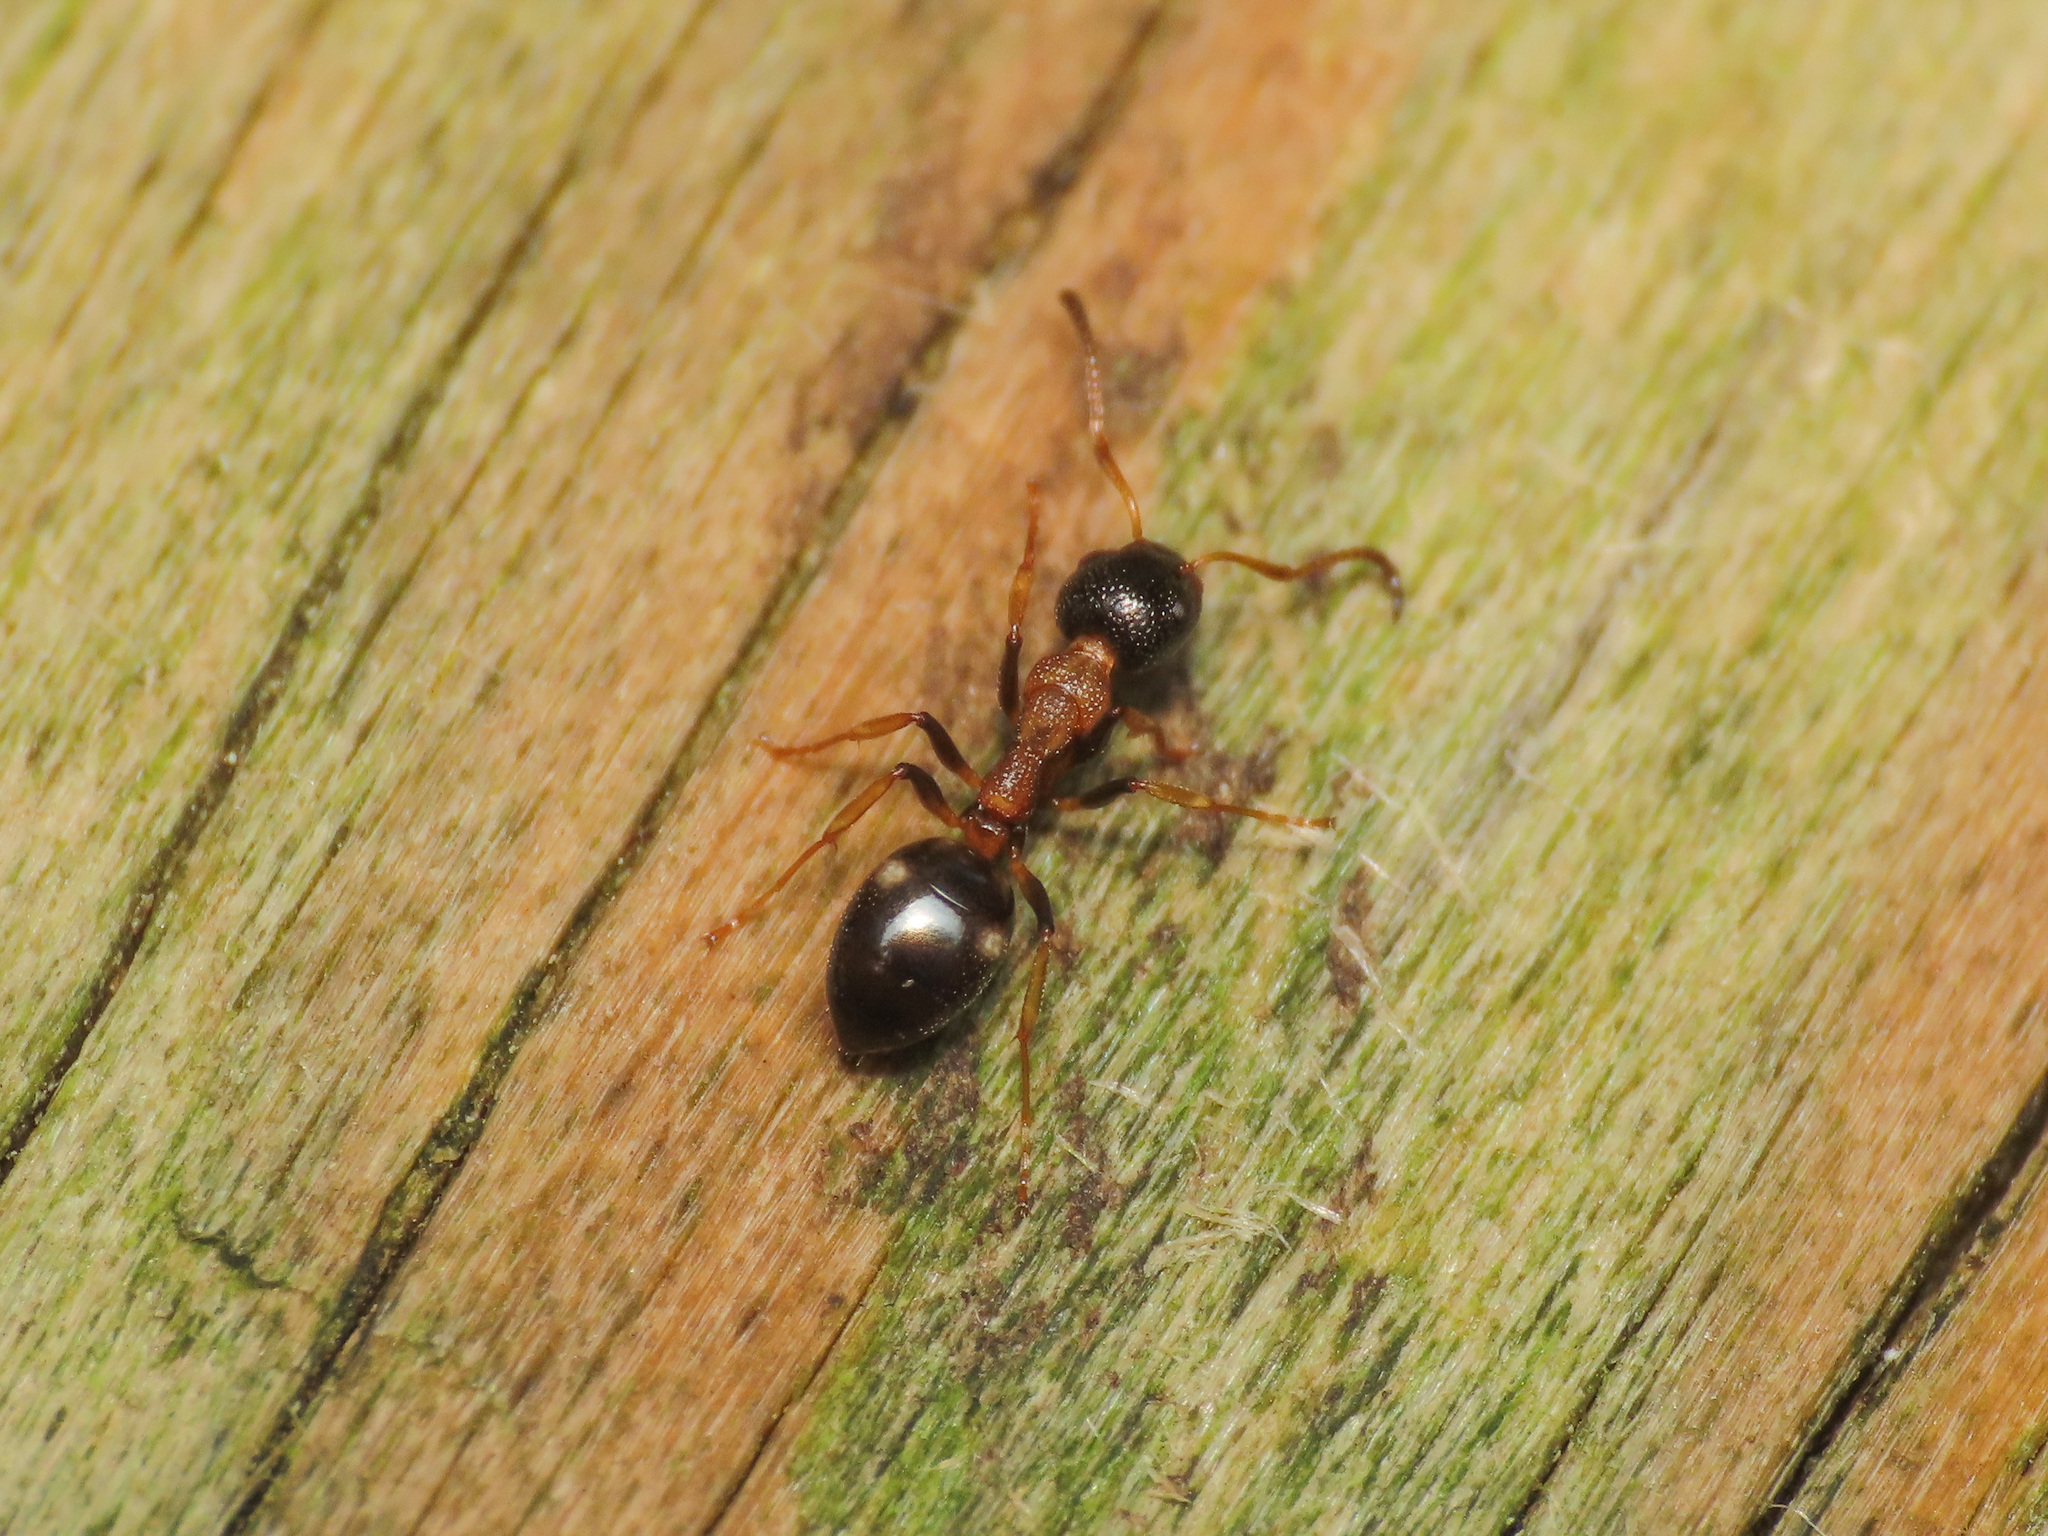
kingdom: Animalia
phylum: Arthropoda
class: Insecta
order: Hymenoptera
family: Formicidae
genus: Dolichoderus
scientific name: Dolichoderus quadripunctatus
